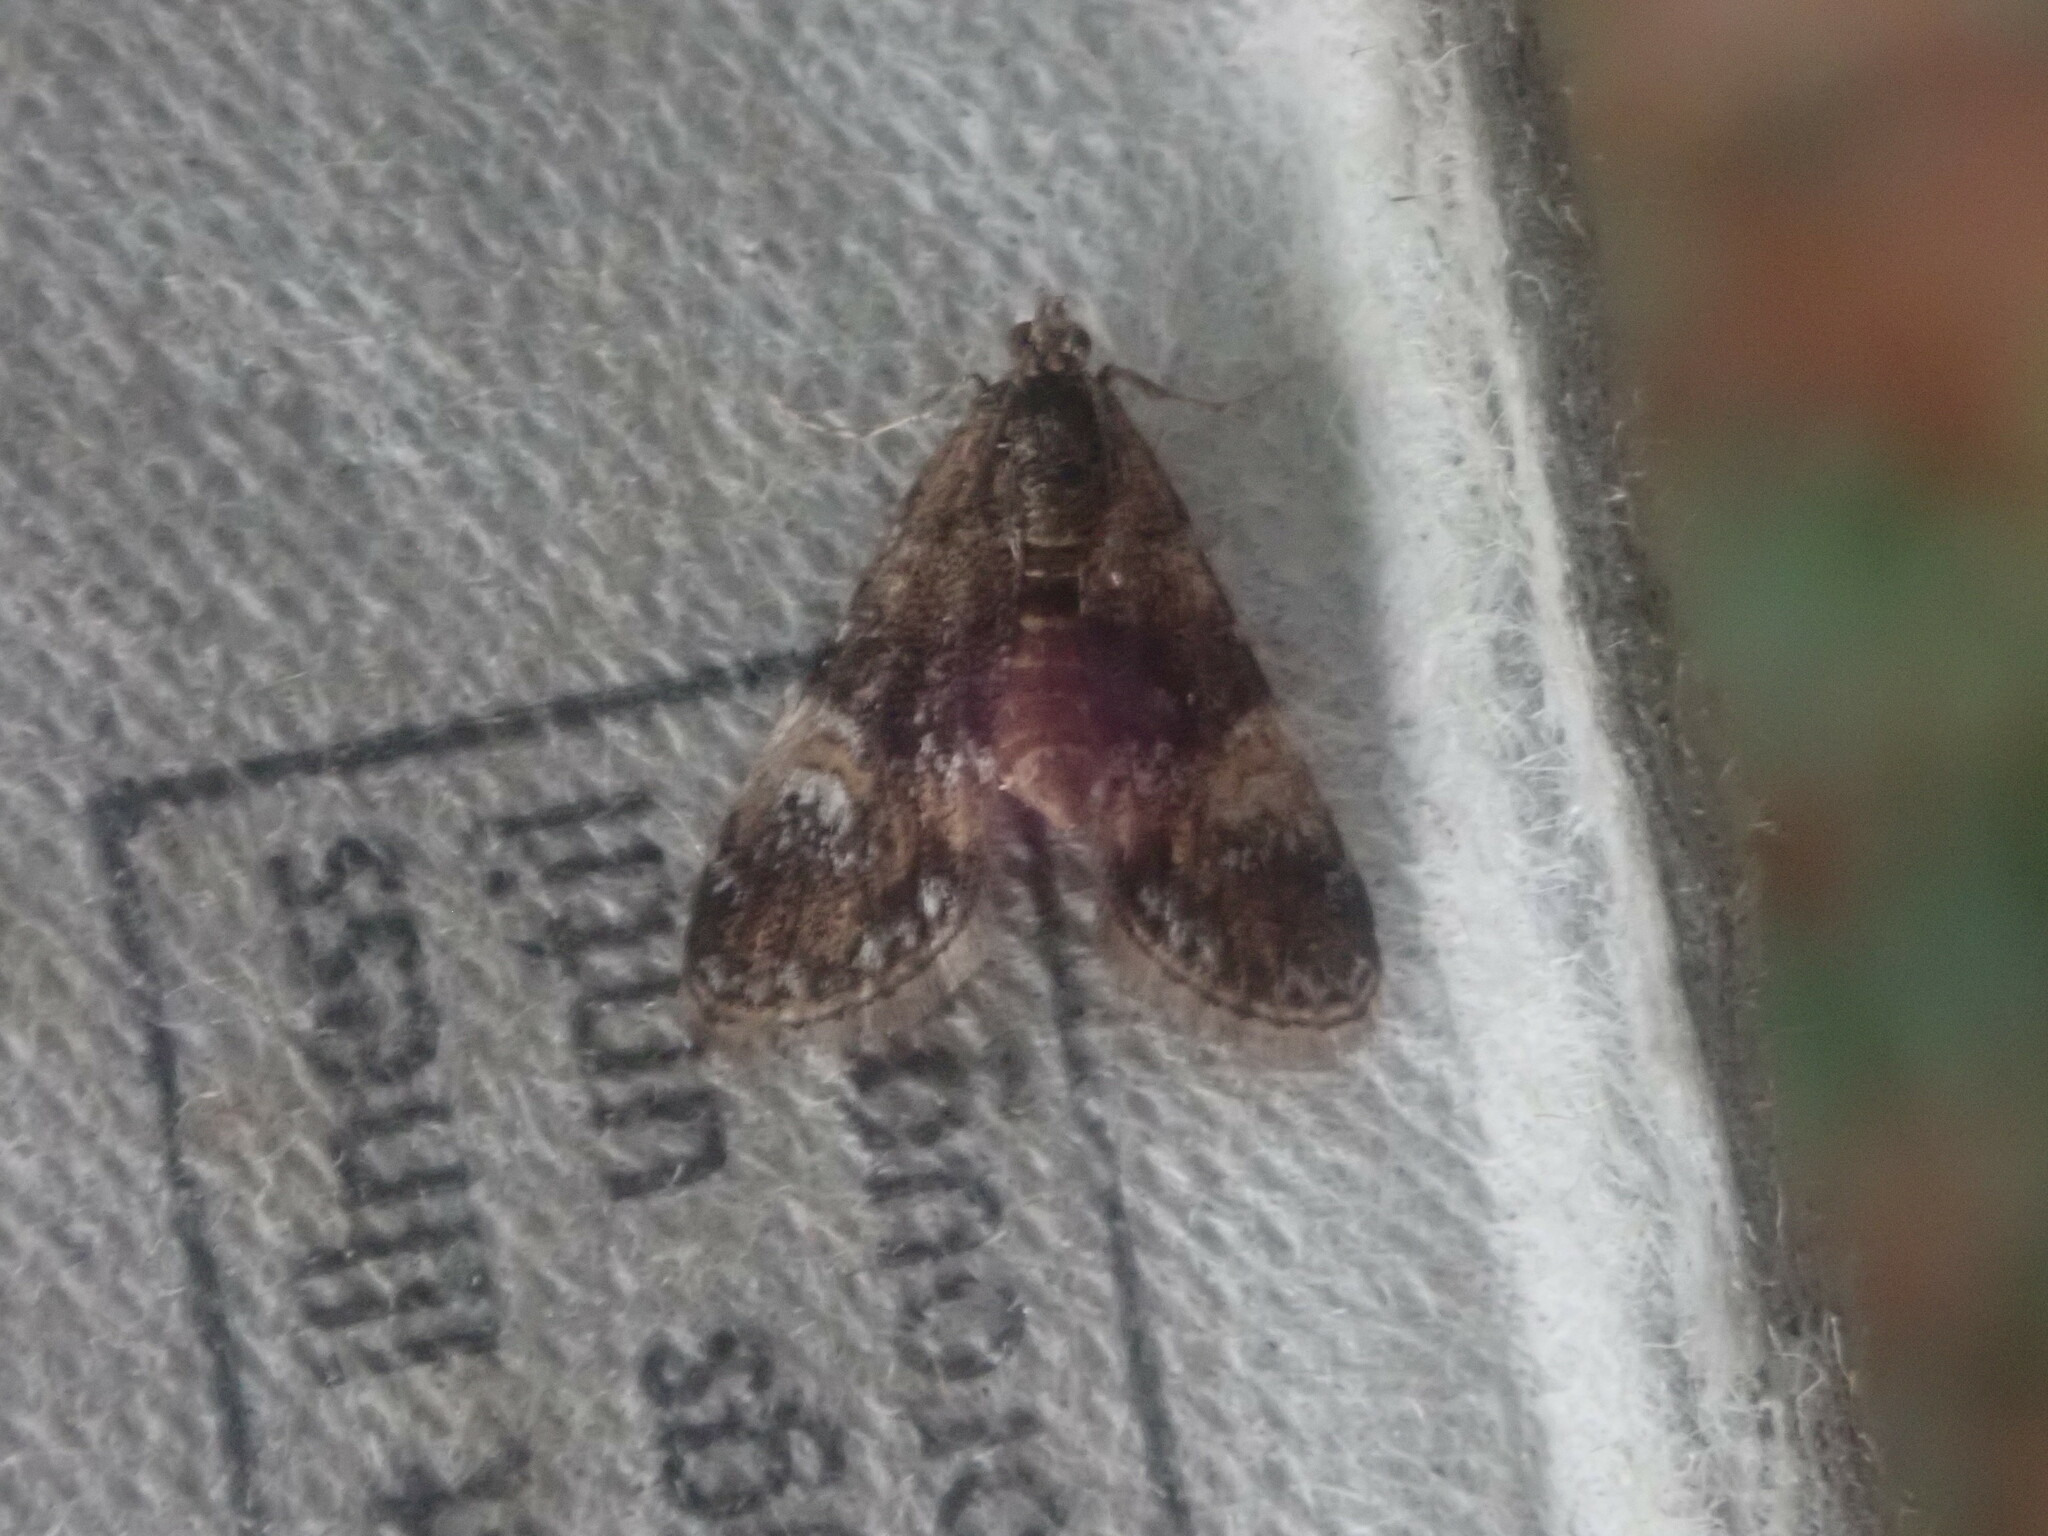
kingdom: Animalia
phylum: Arthropoda
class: Insecta
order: Lepidoptera
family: Crambidae
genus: Elophila
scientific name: Elophila obliteralis
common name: Waterlily leafcutter moth
